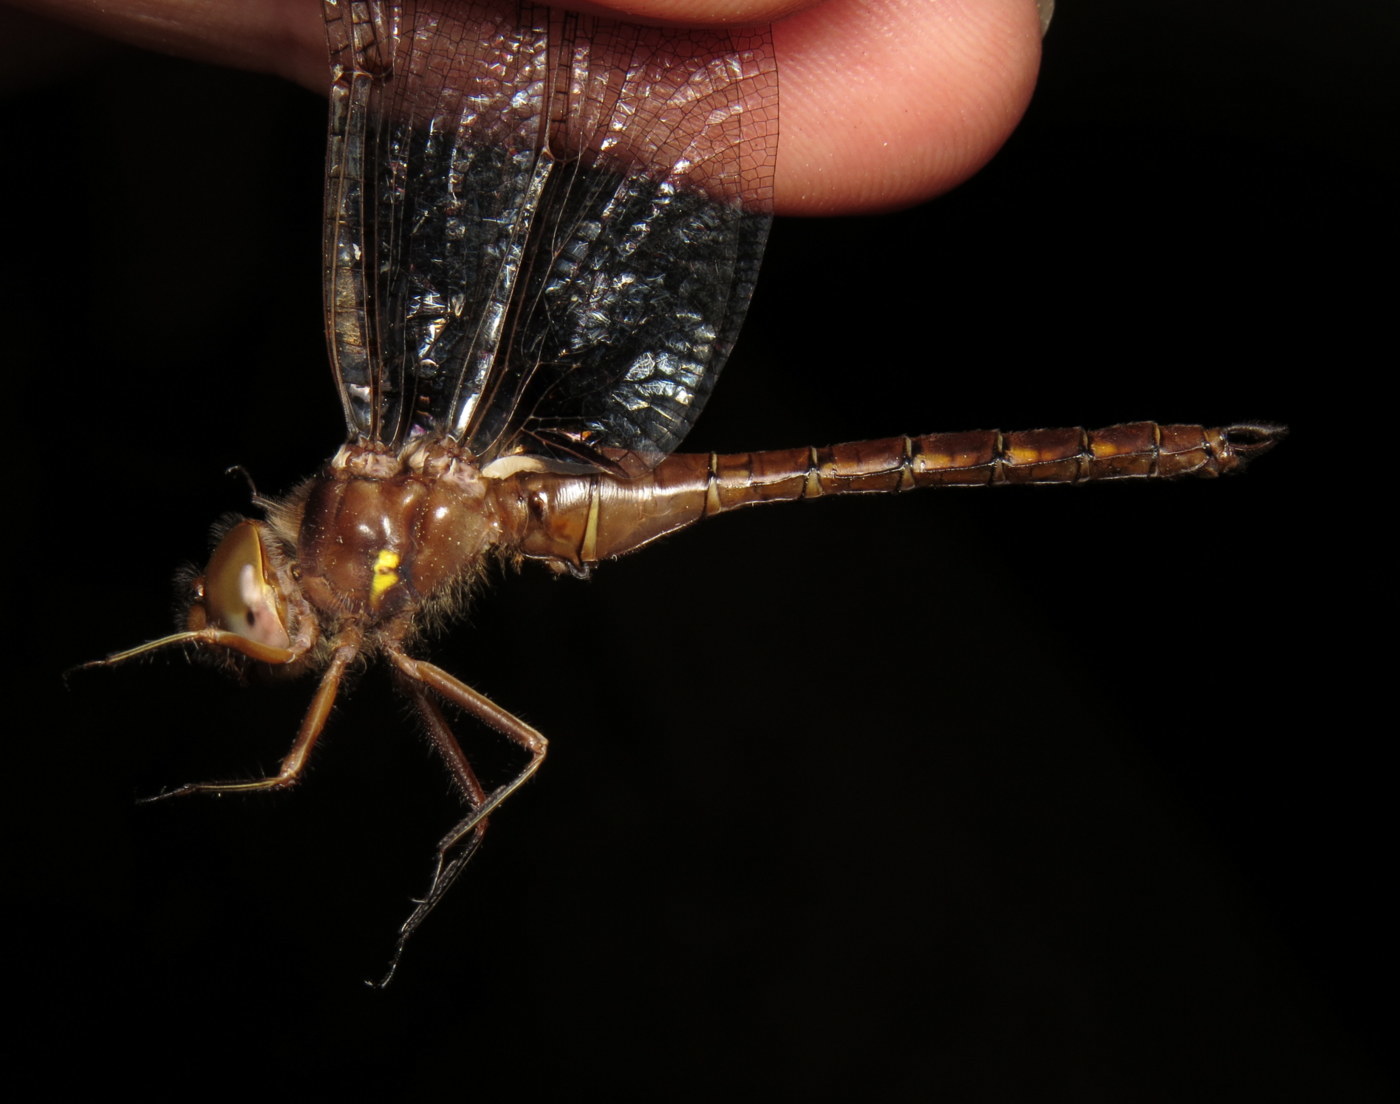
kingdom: Animalia
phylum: Arthropoda
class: Insecta
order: Odonata
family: Corduliidae
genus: Neurocordulia
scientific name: Neurocordulia obsoleta
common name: Umber shadowdragon
